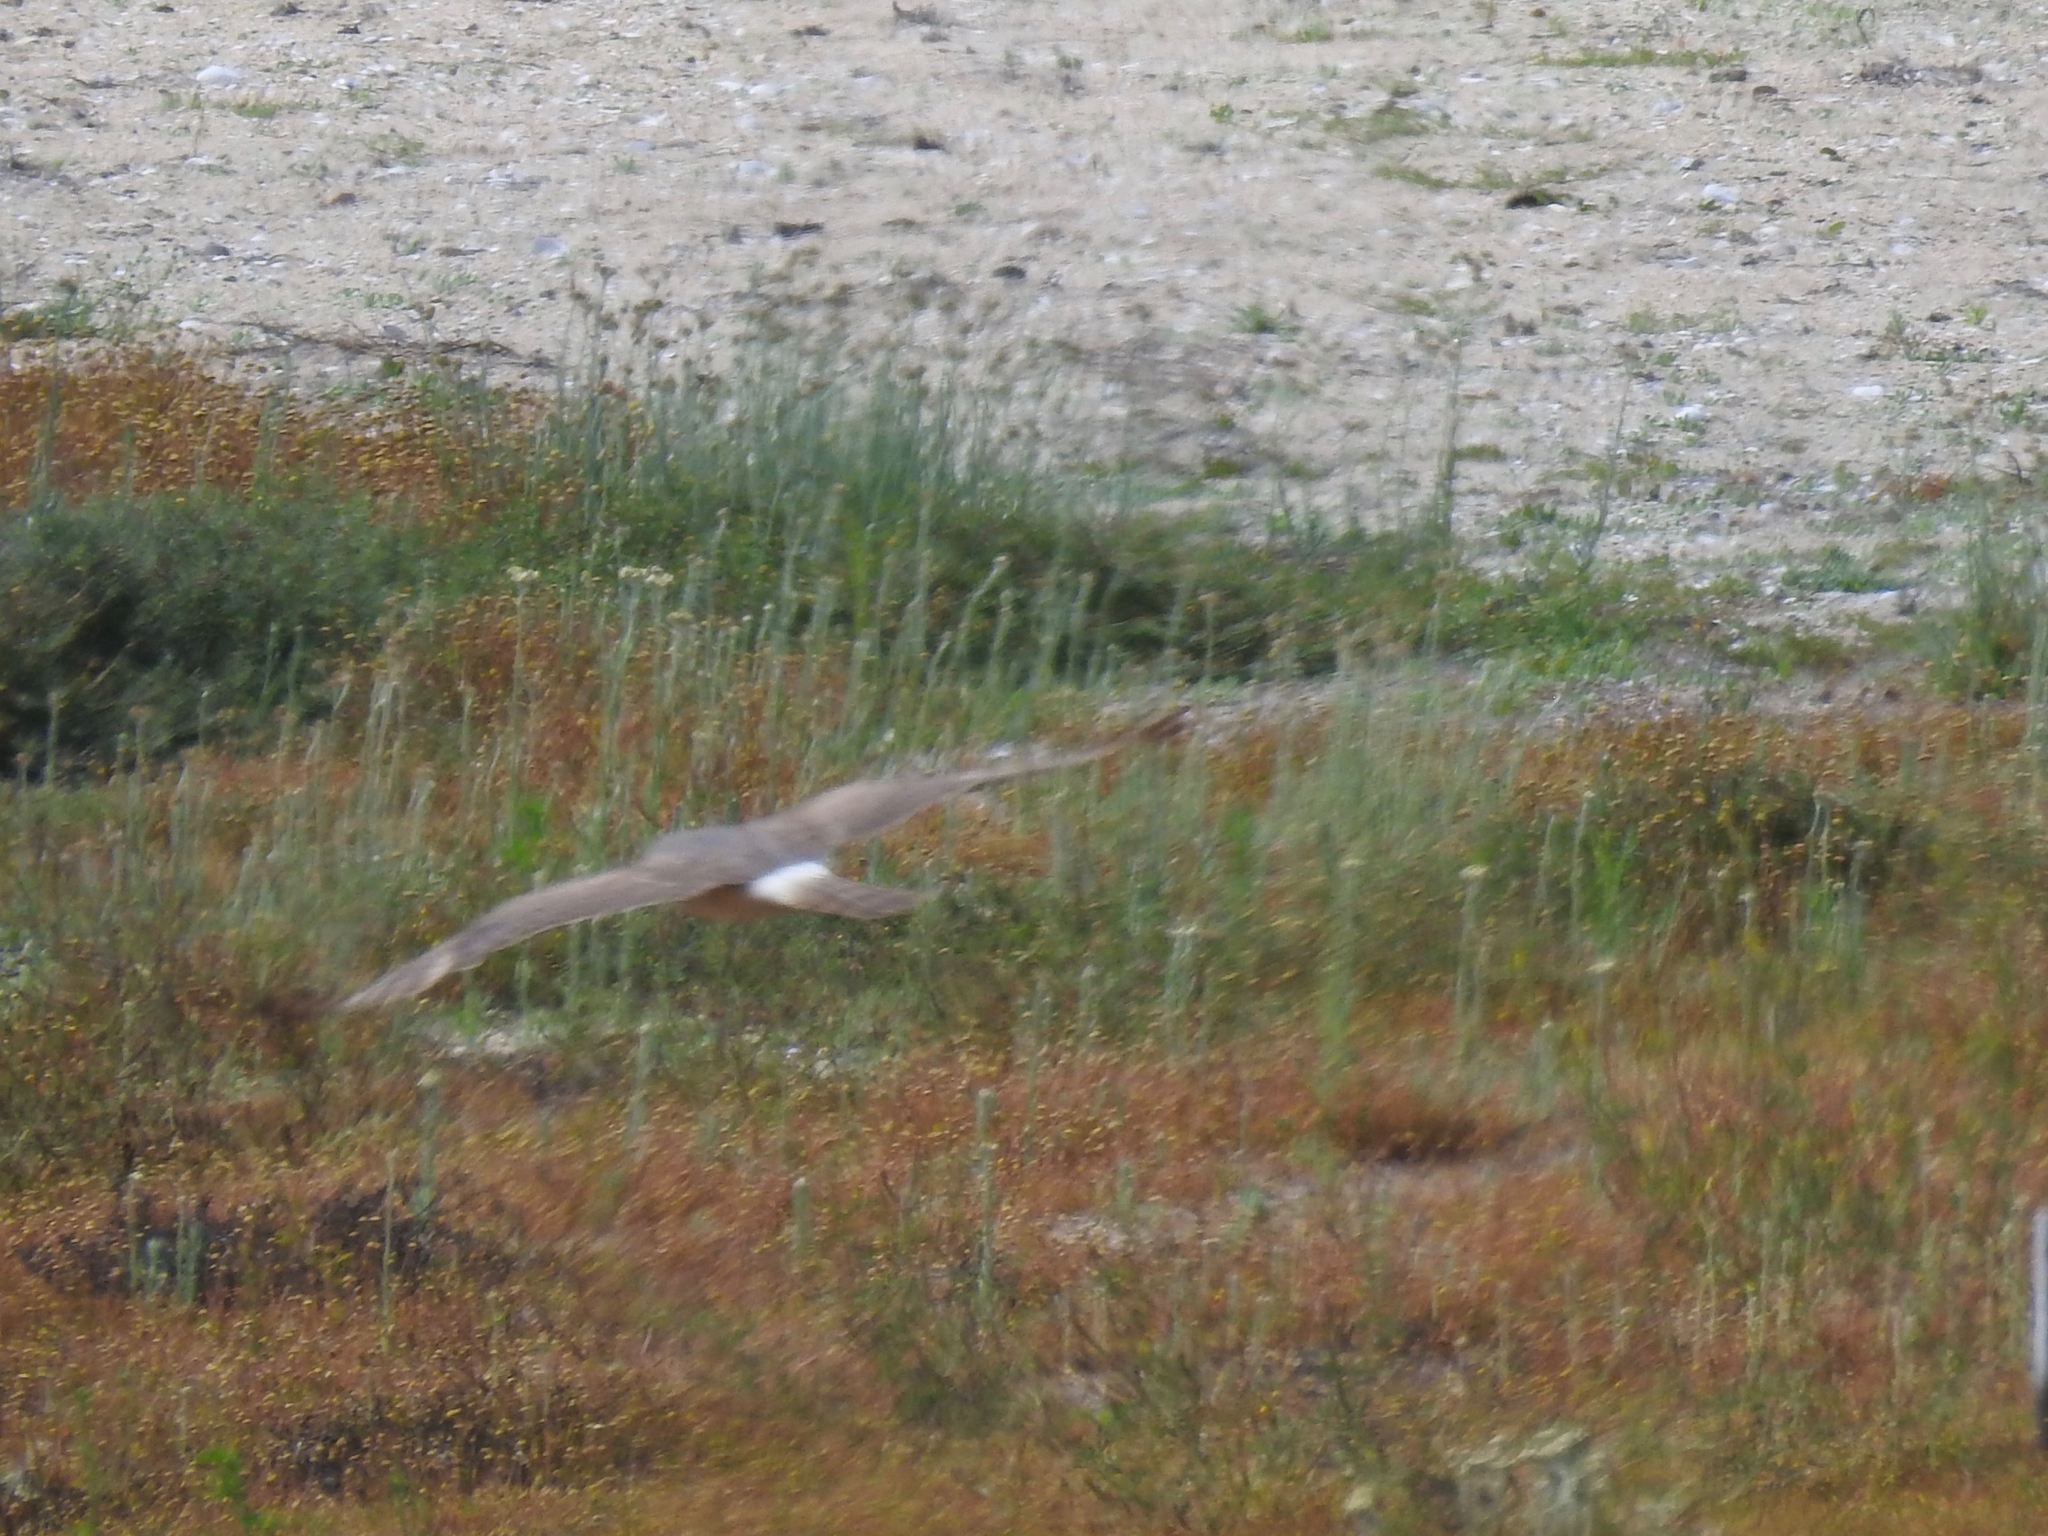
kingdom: Animalia
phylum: Chordata
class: Aves
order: Accipitriformes
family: Accipitridae
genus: Circus
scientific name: Circus cyaneus
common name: Hen harrier
